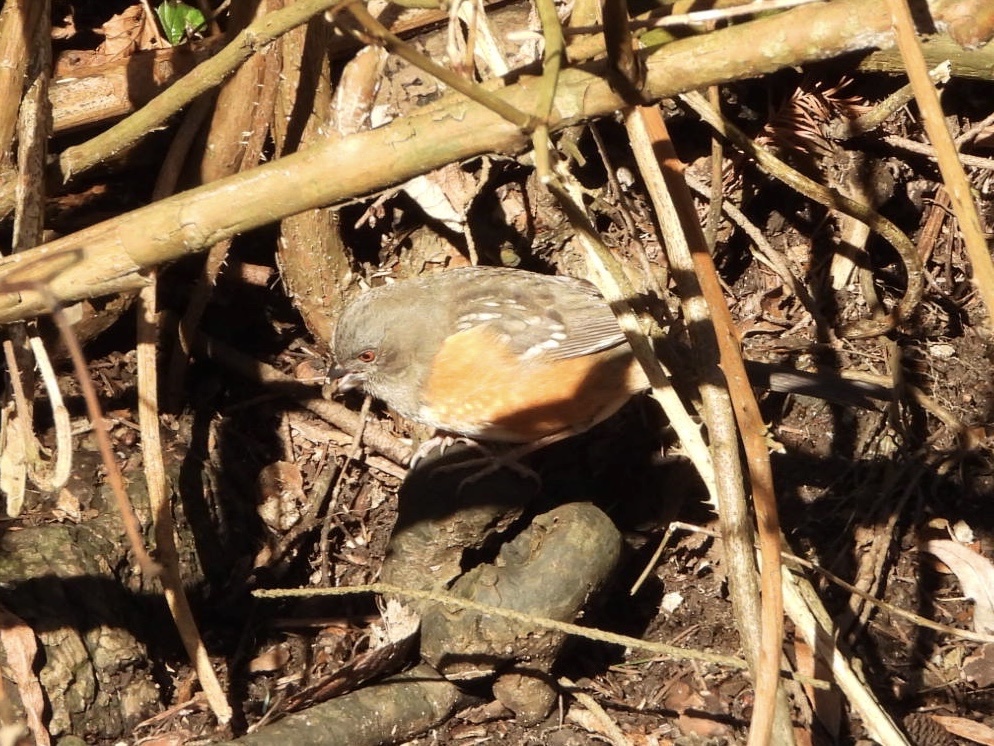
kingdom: Animalia
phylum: Chordata
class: Aves
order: Passeriformes
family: Passerellidae
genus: Pipilo
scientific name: Pipilo maculatus
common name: Spotted towhee
